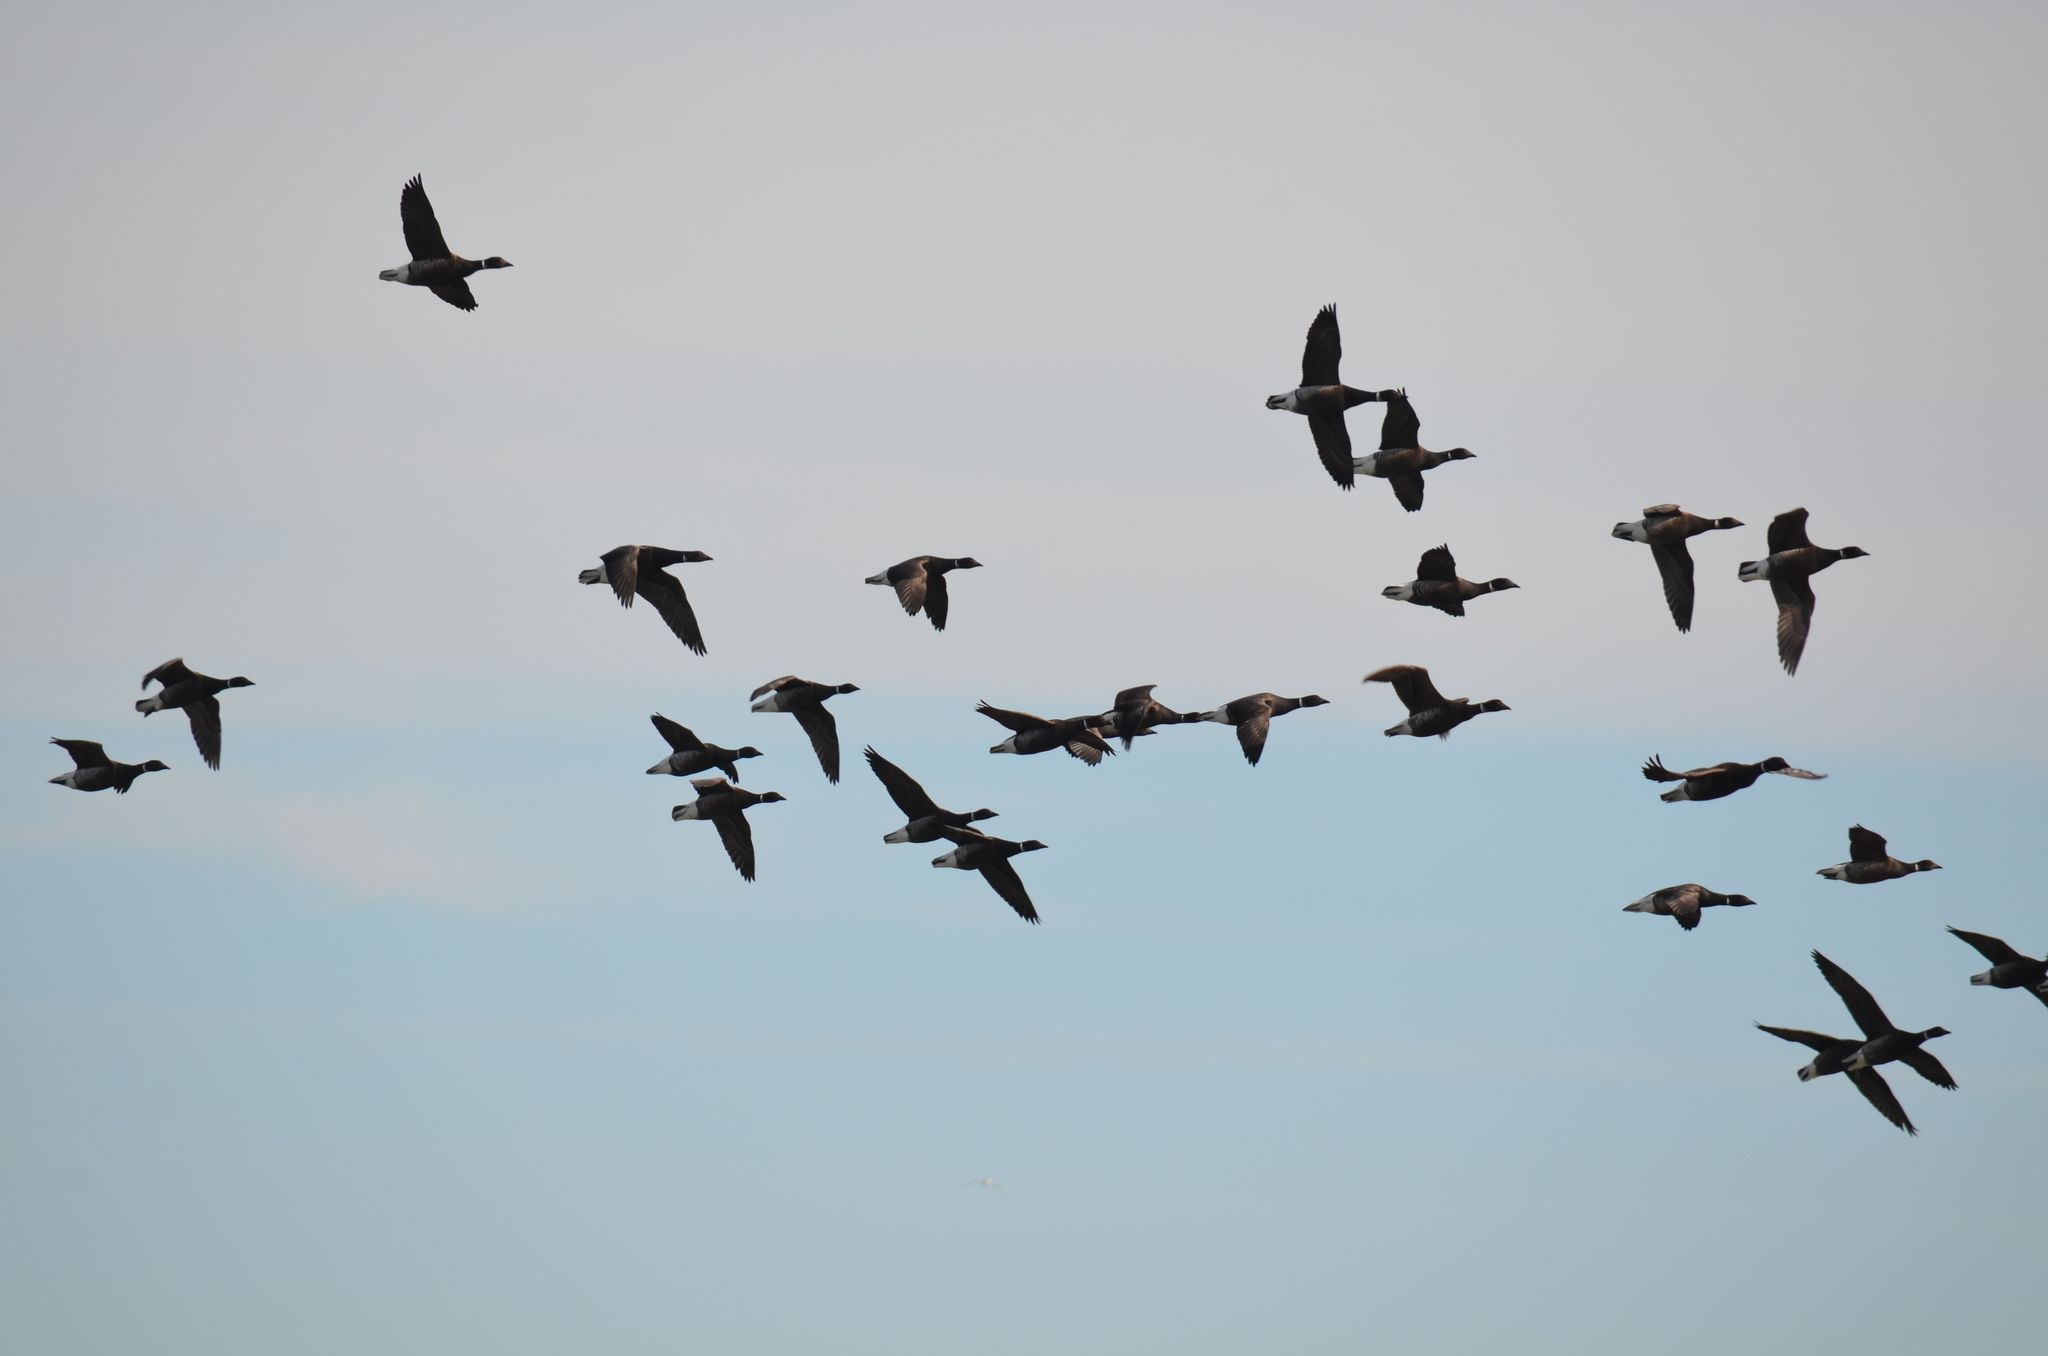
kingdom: Animalia
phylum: Chordata
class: Aves
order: Anseriformes
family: Anatidae
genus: Branta
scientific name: Branta bernicla
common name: Brant goose
